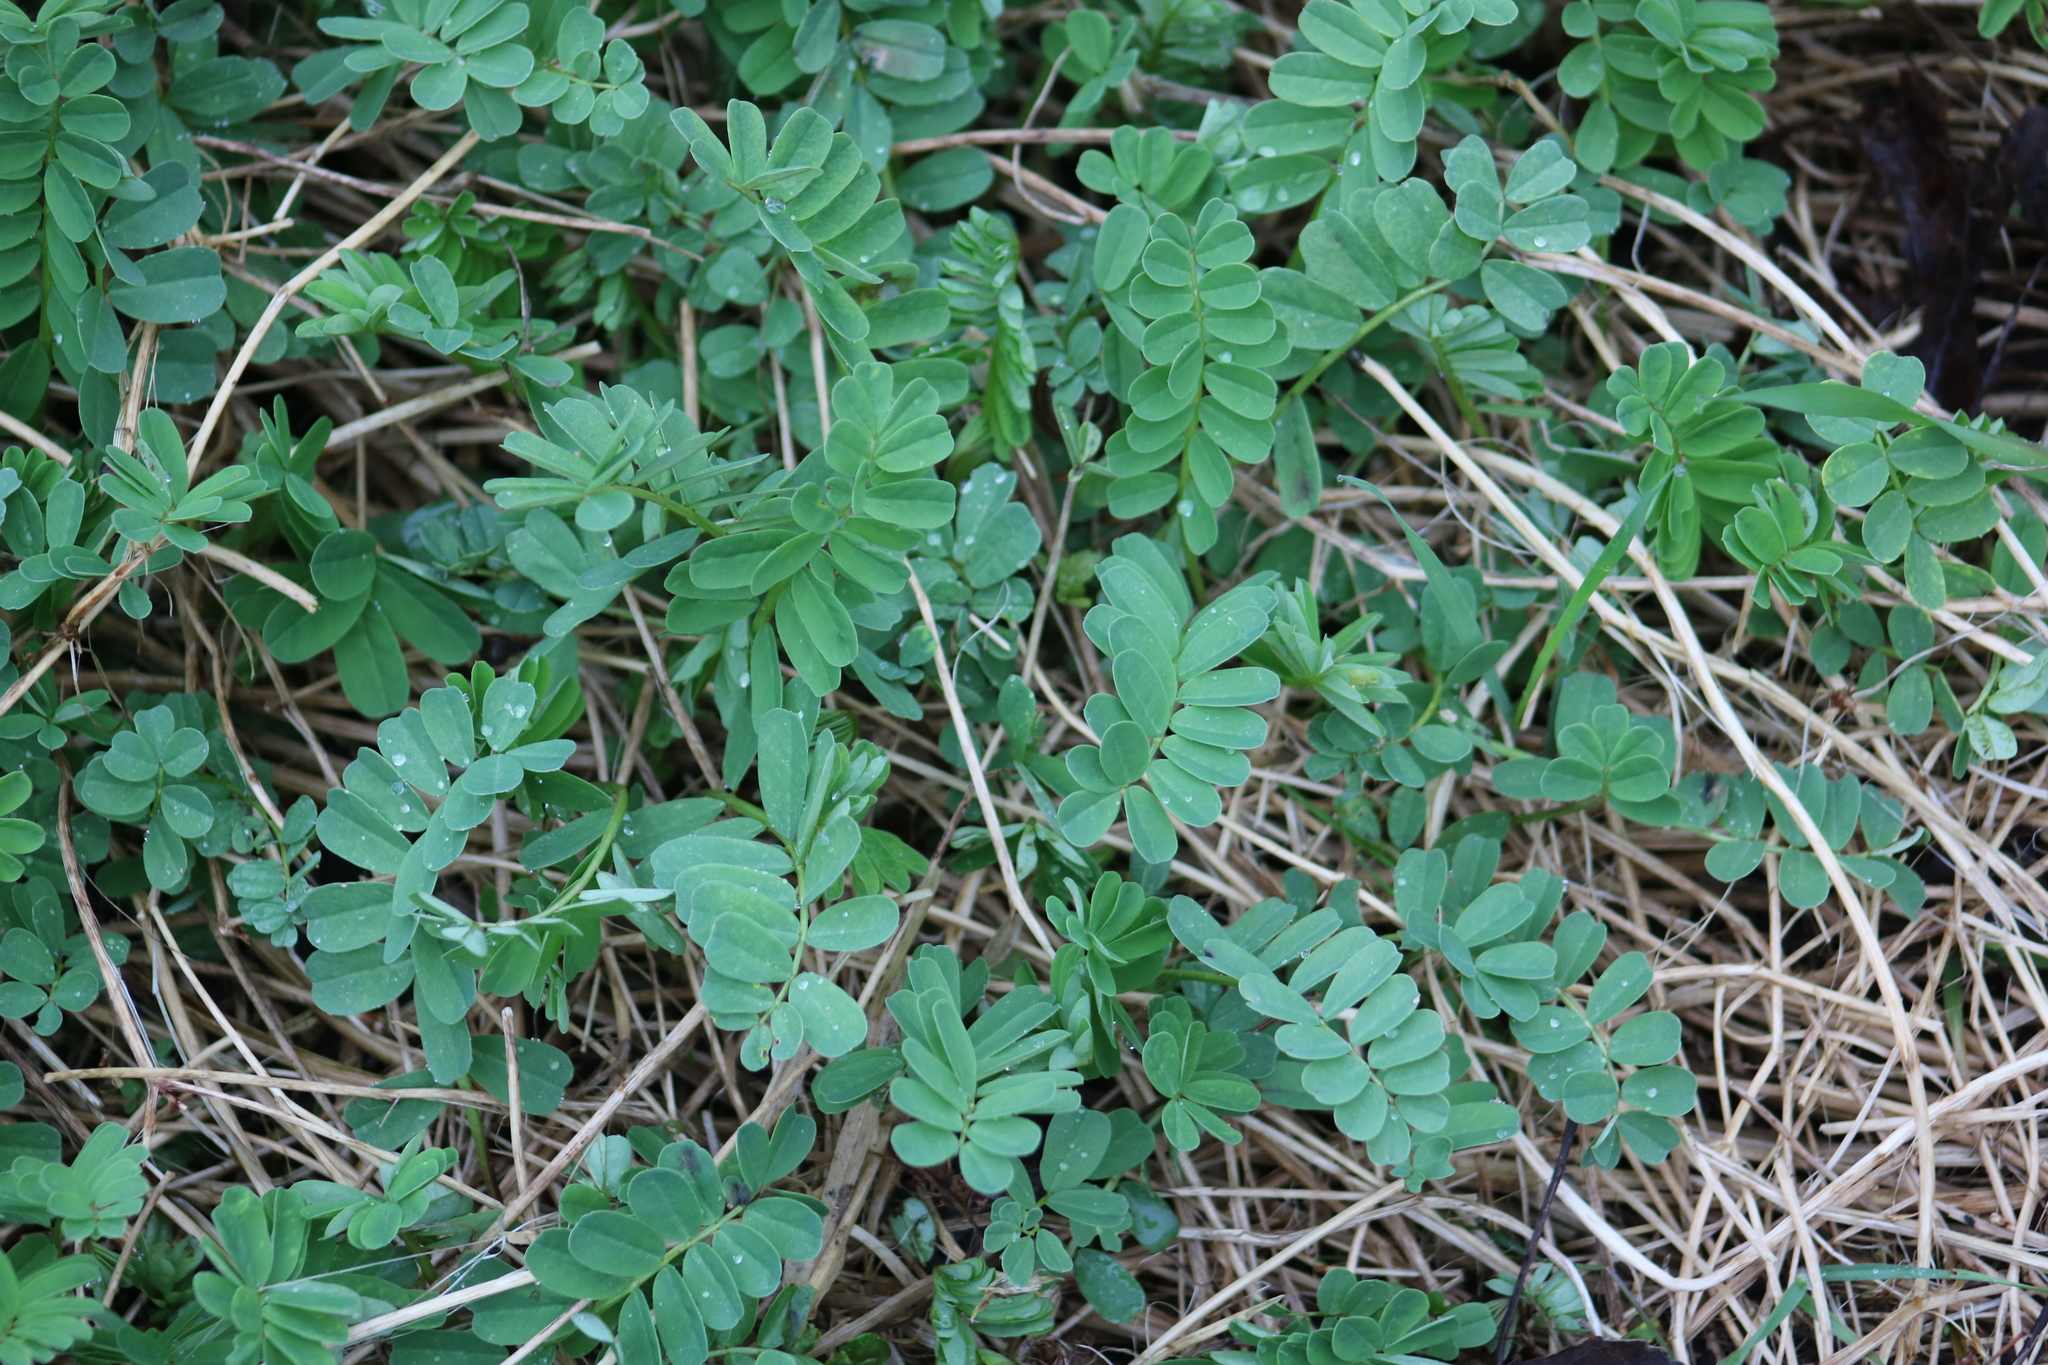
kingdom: Plantae
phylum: Tracheophyta
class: Magnoliopsida
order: Fabales
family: Fabaceae
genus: Coronilla
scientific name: Coronilla varia
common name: Crownvetch
